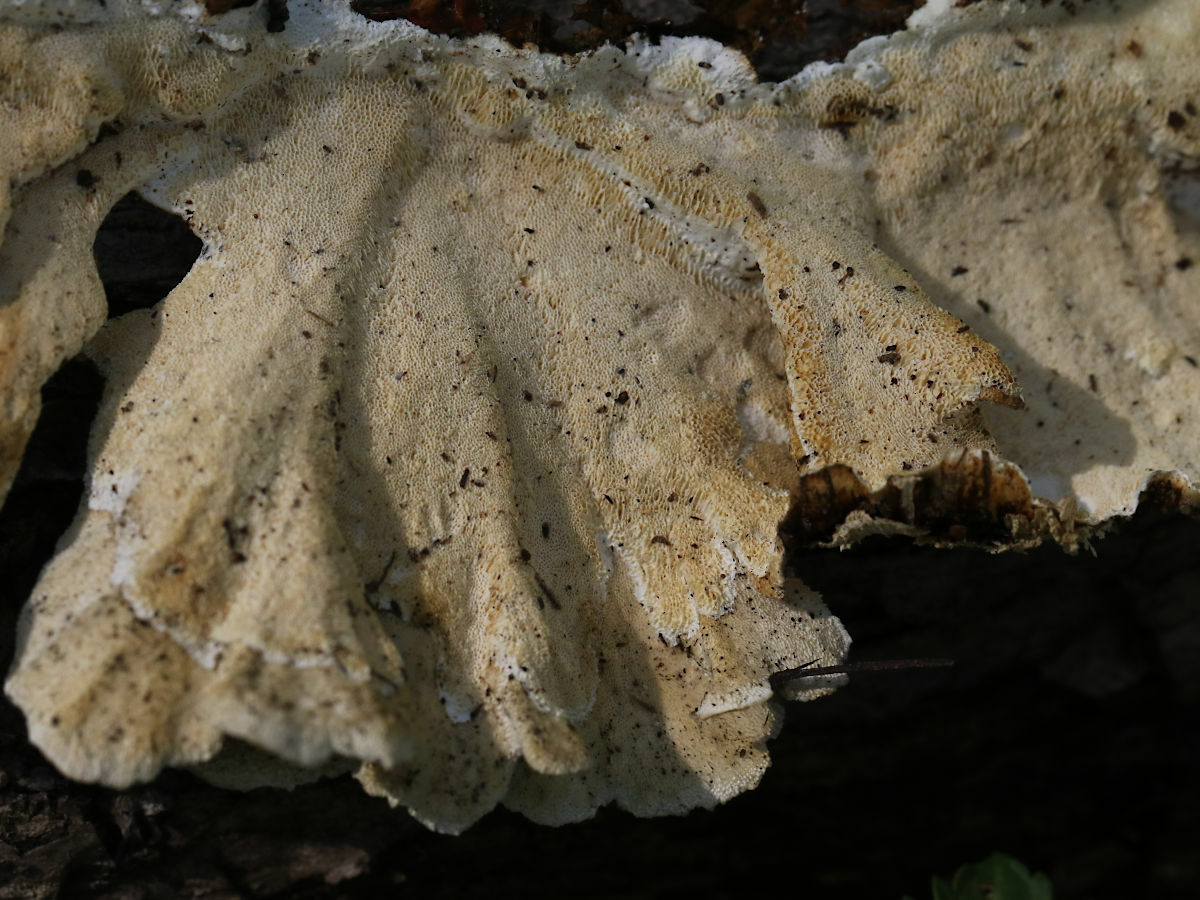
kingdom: Fungi
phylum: Basidiomycota
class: Agaricomycetes
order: Polyporales
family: Polyporaceae
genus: Trametes
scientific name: Trametes versicolor
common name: Turkeytail
